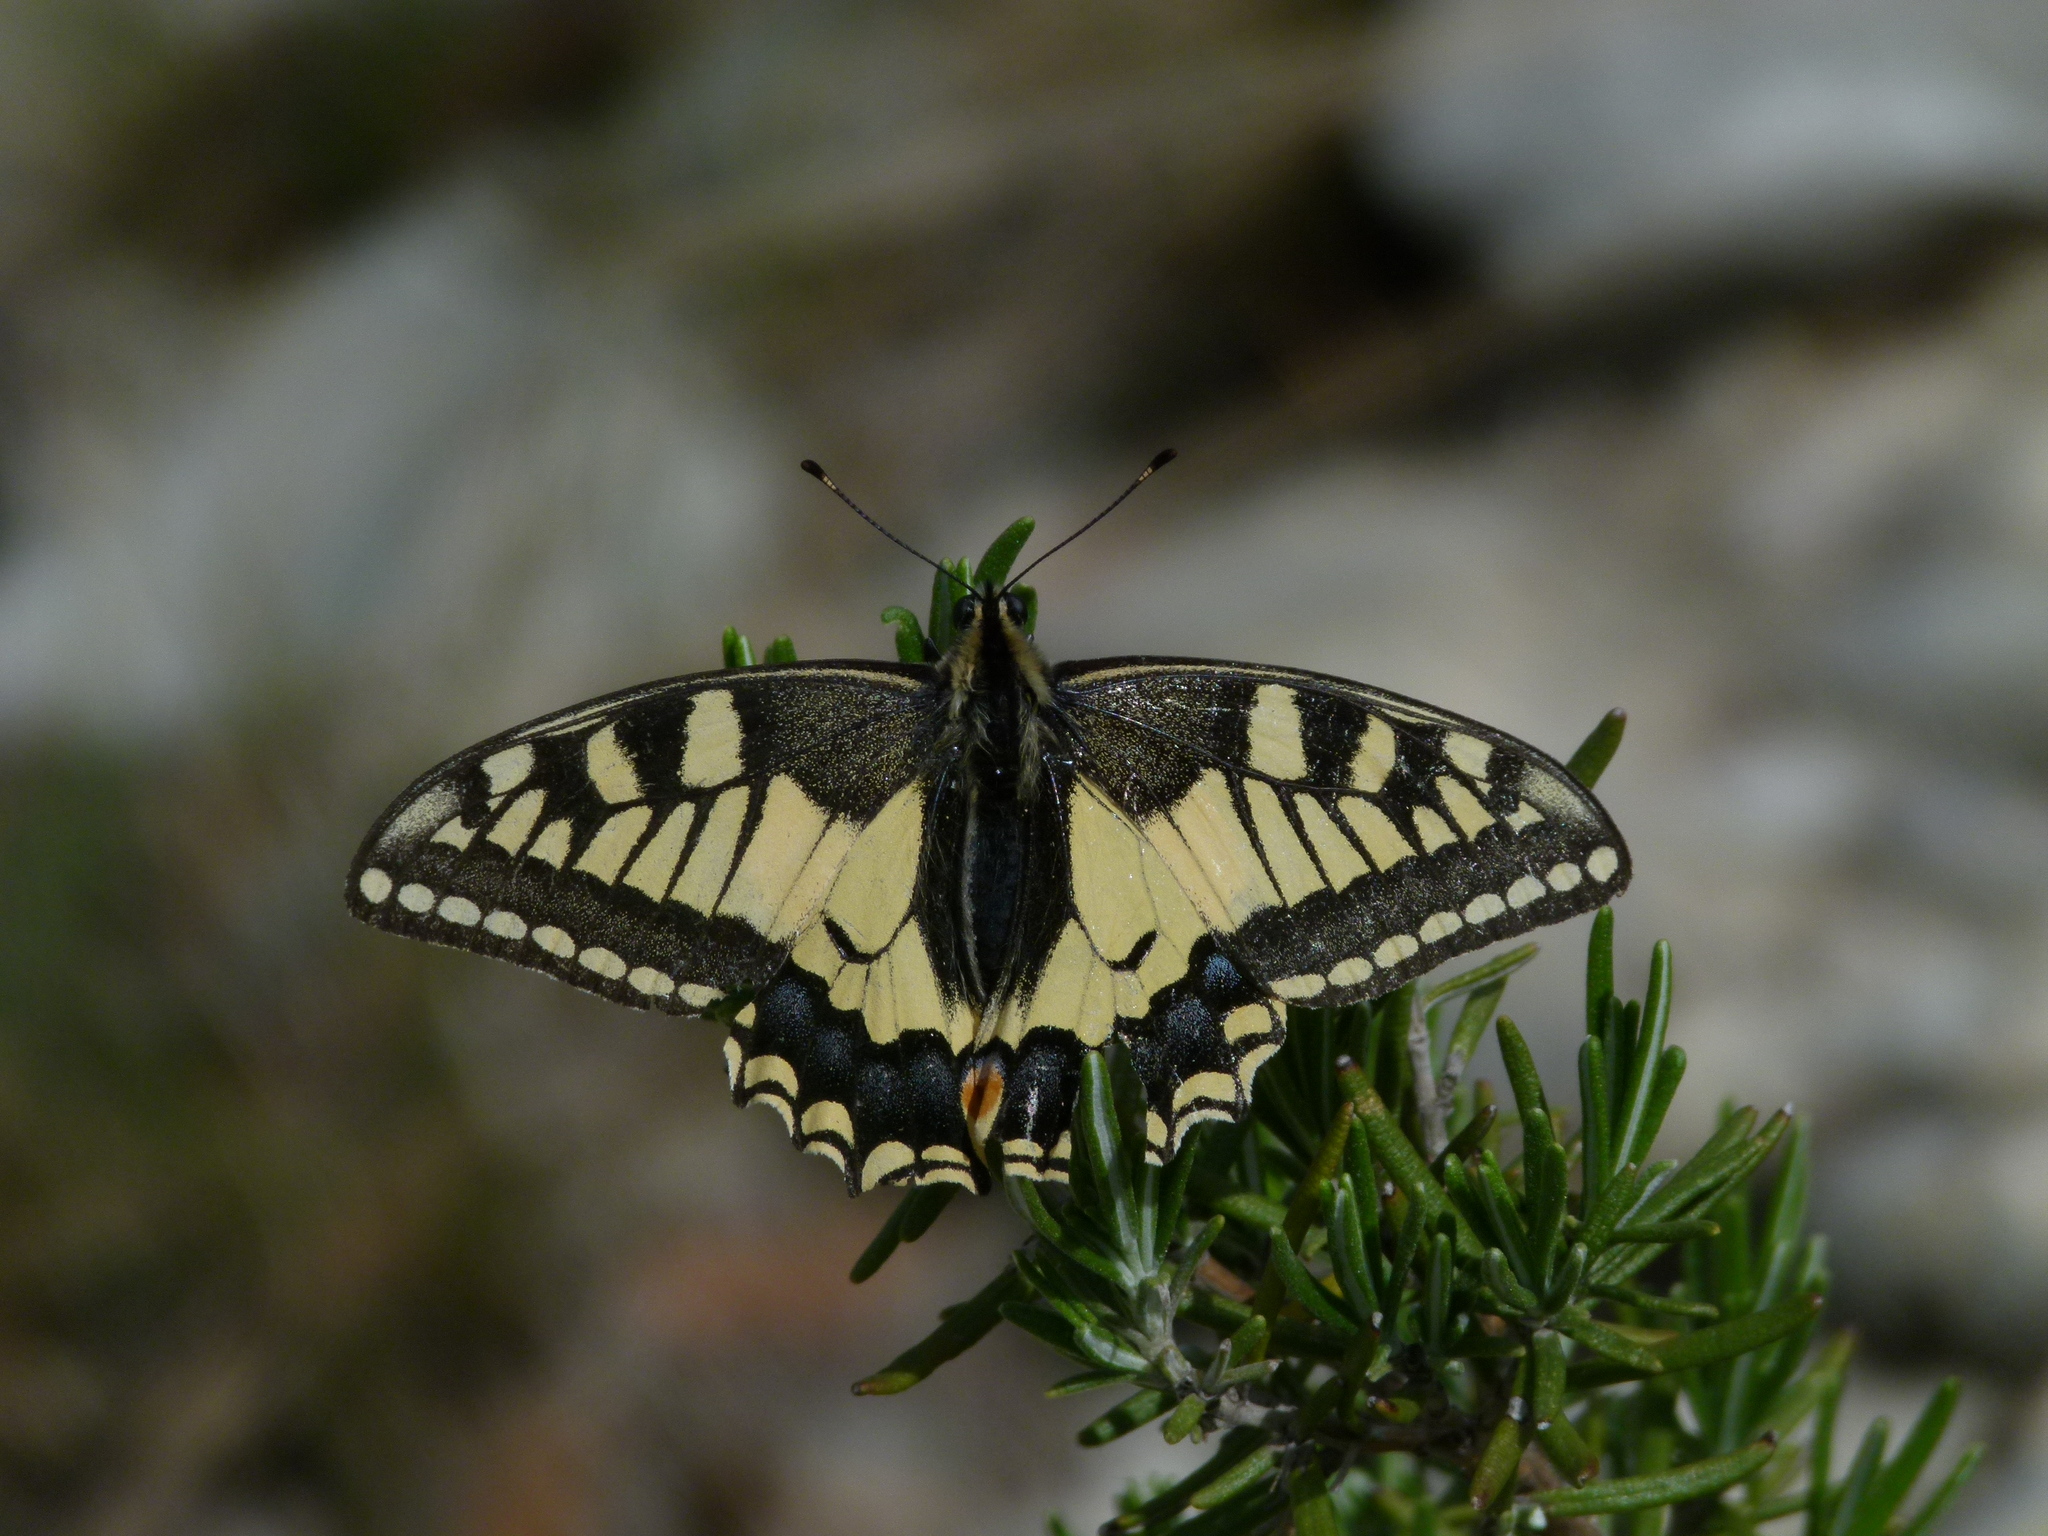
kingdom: Animalia
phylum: Arthropoda
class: Insecta
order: Lepidoptera
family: Papilionidae
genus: Papilio
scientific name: Papilio machaon
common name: Swallowtail
